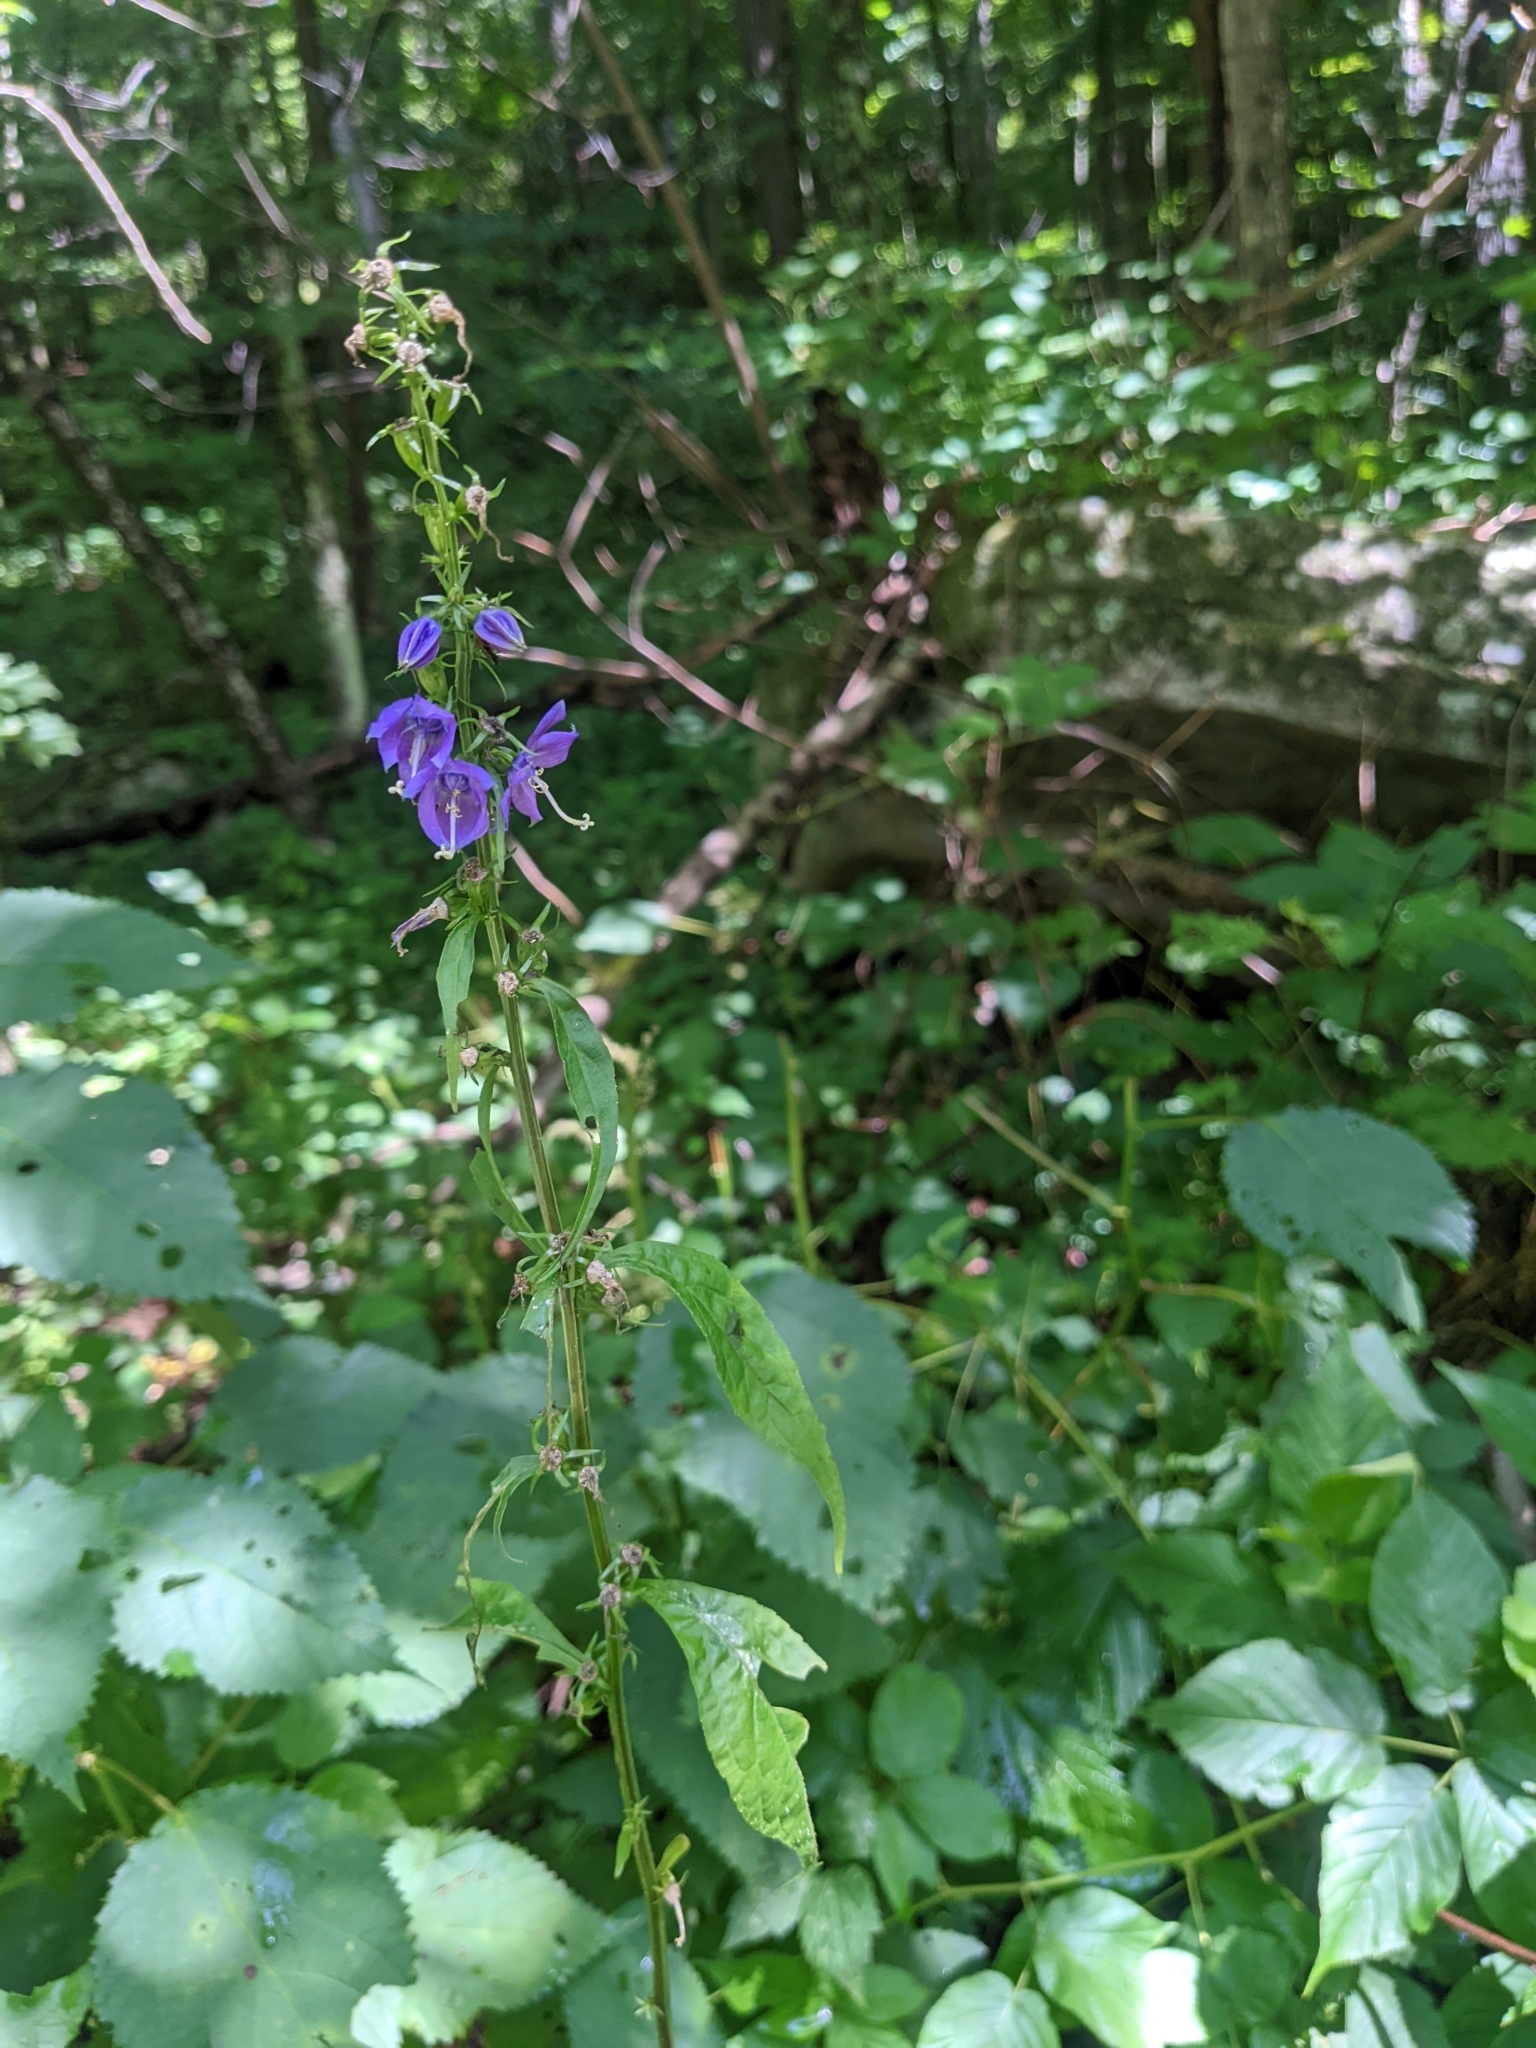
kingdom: Plantae
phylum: Tracheophyta
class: Magnoliopsida
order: Asterales
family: Campanulaceae
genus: Campanulastrum
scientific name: Campanulastrum americanum
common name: American bellflower
